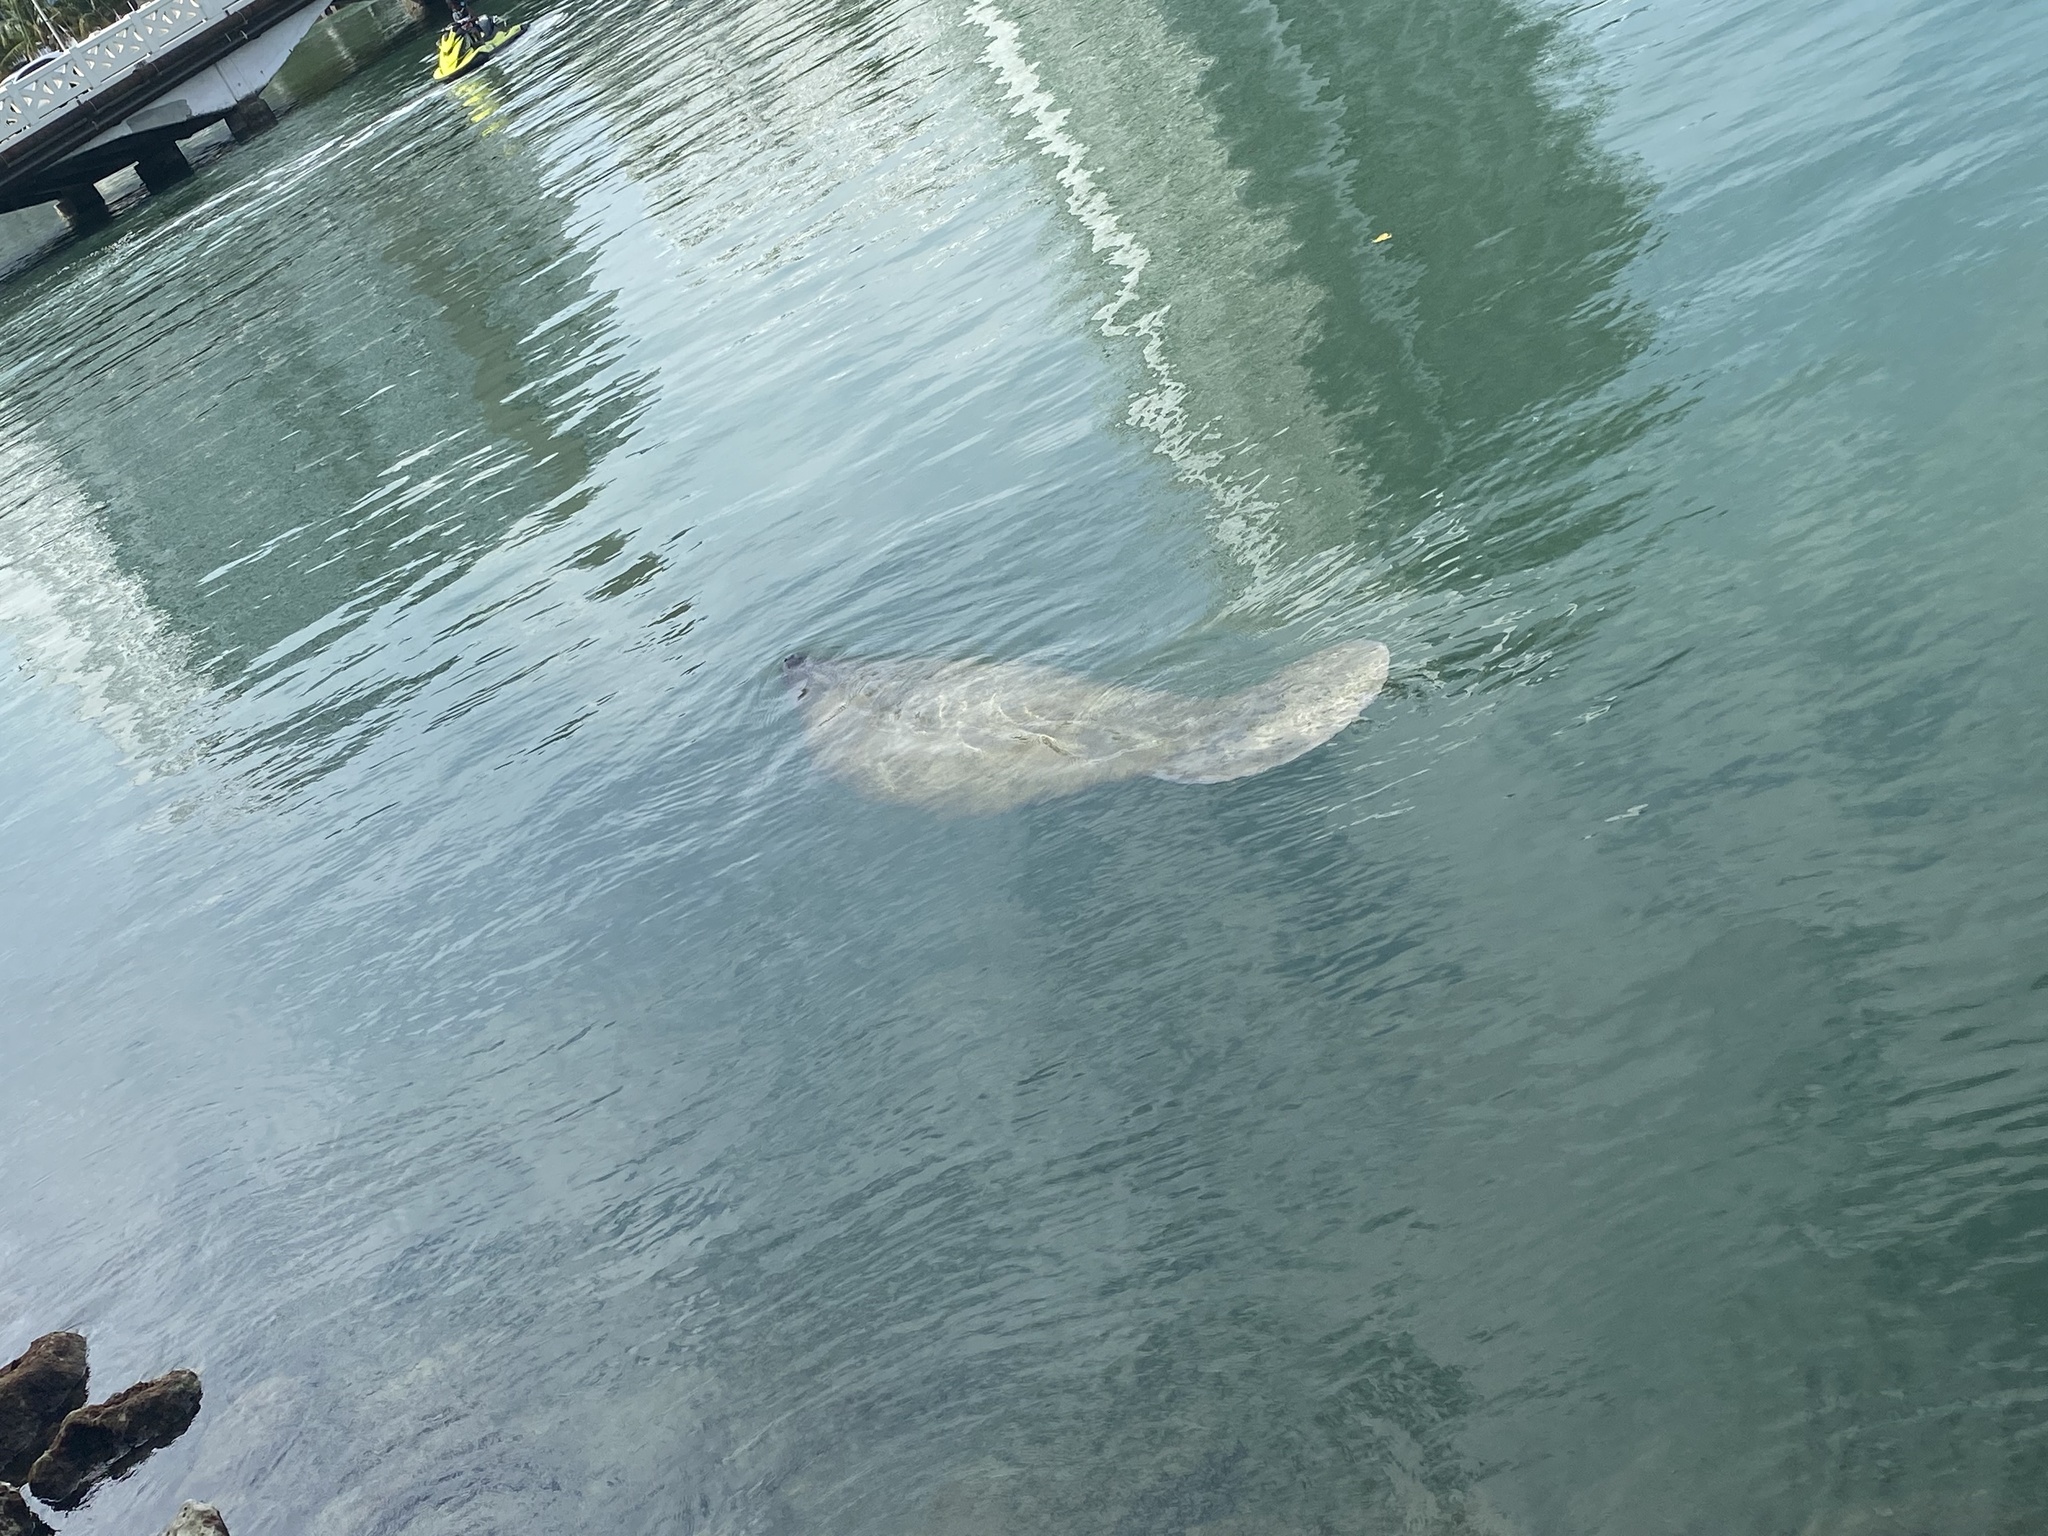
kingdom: Animalia
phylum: Chordata
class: Mammalia
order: Sirenia
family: Trichechidae
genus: Trichechus
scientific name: Trichechus manatus
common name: West indian manatee
